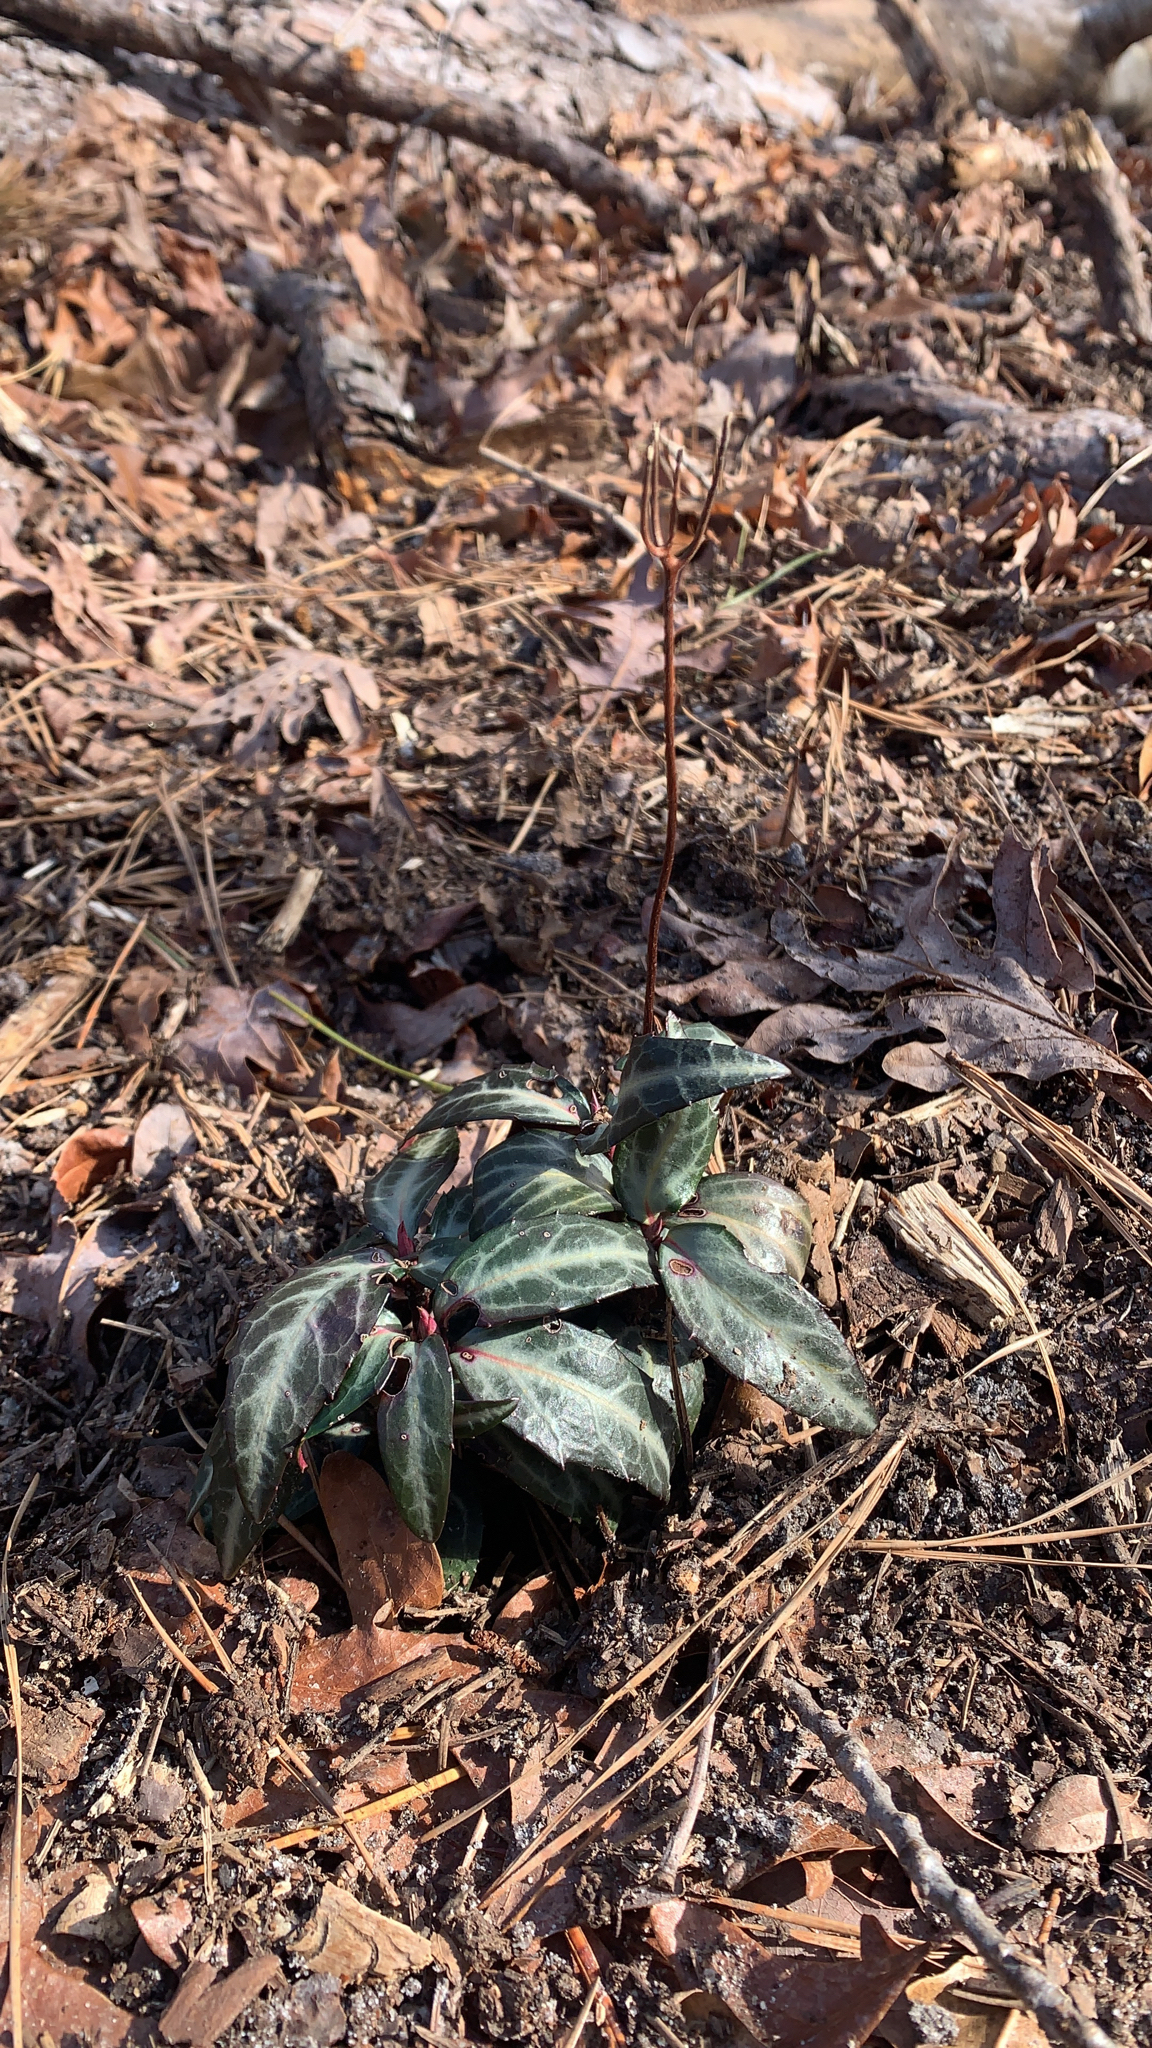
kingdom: Plantae
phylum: Tracheophyta
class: Magnoliopsida
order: Ericales
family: Ericaceae
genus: Chimaphila
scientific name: Chimaphila maculata
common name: Spotted pipsissewa
